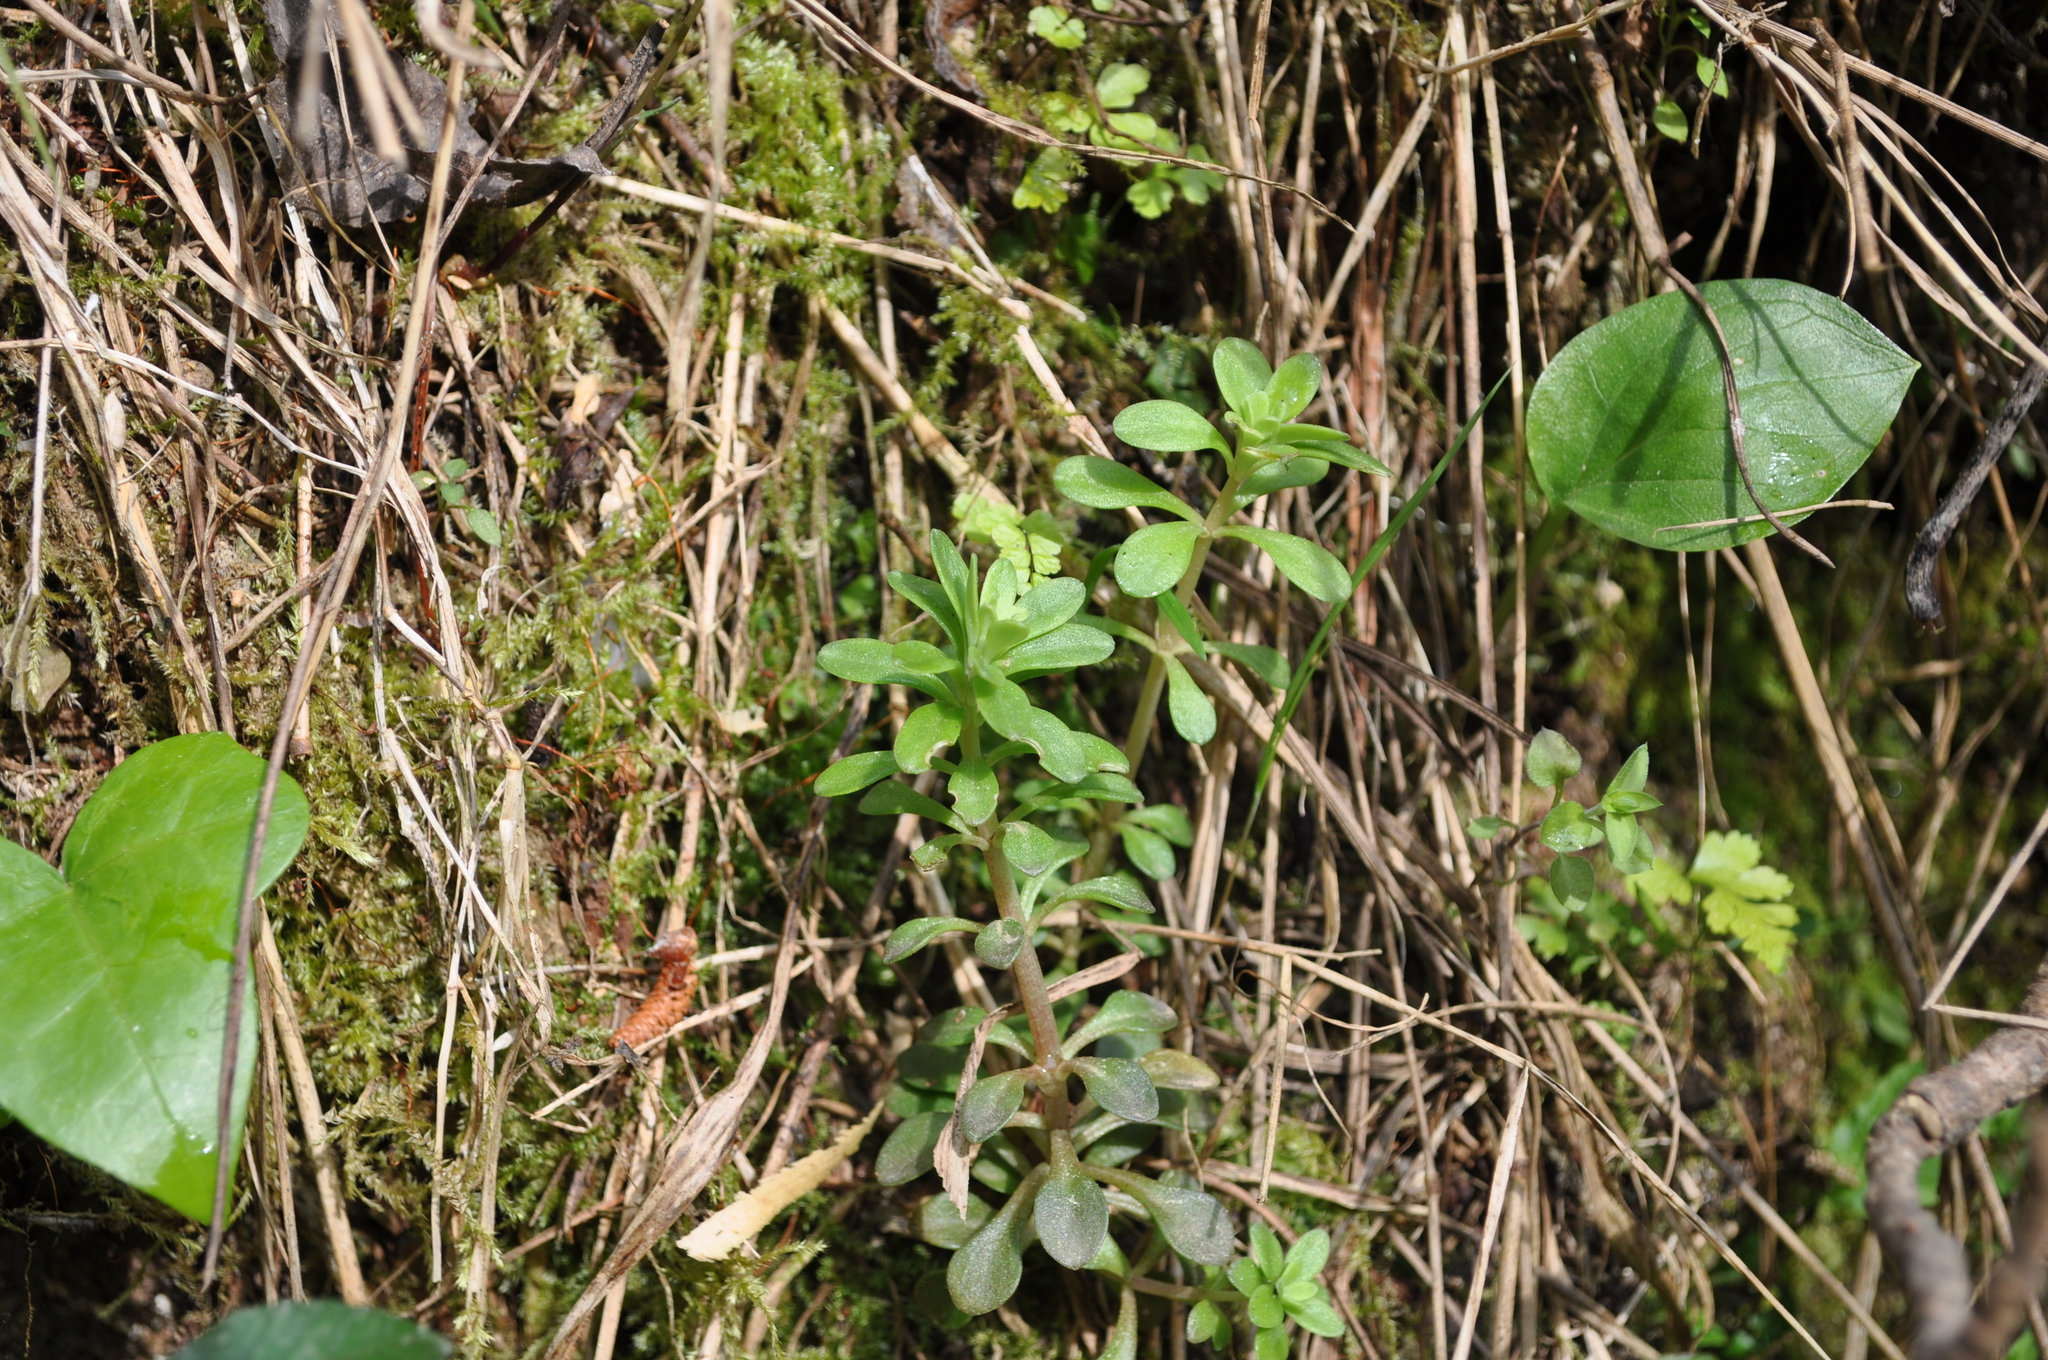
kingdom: Plantae
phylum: Tracheophyta
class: Magnoliopsida
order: Saxifragales
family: Crassulaceae
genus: Sedum
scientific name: Sedum cepaea
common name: Pink stonecrop
